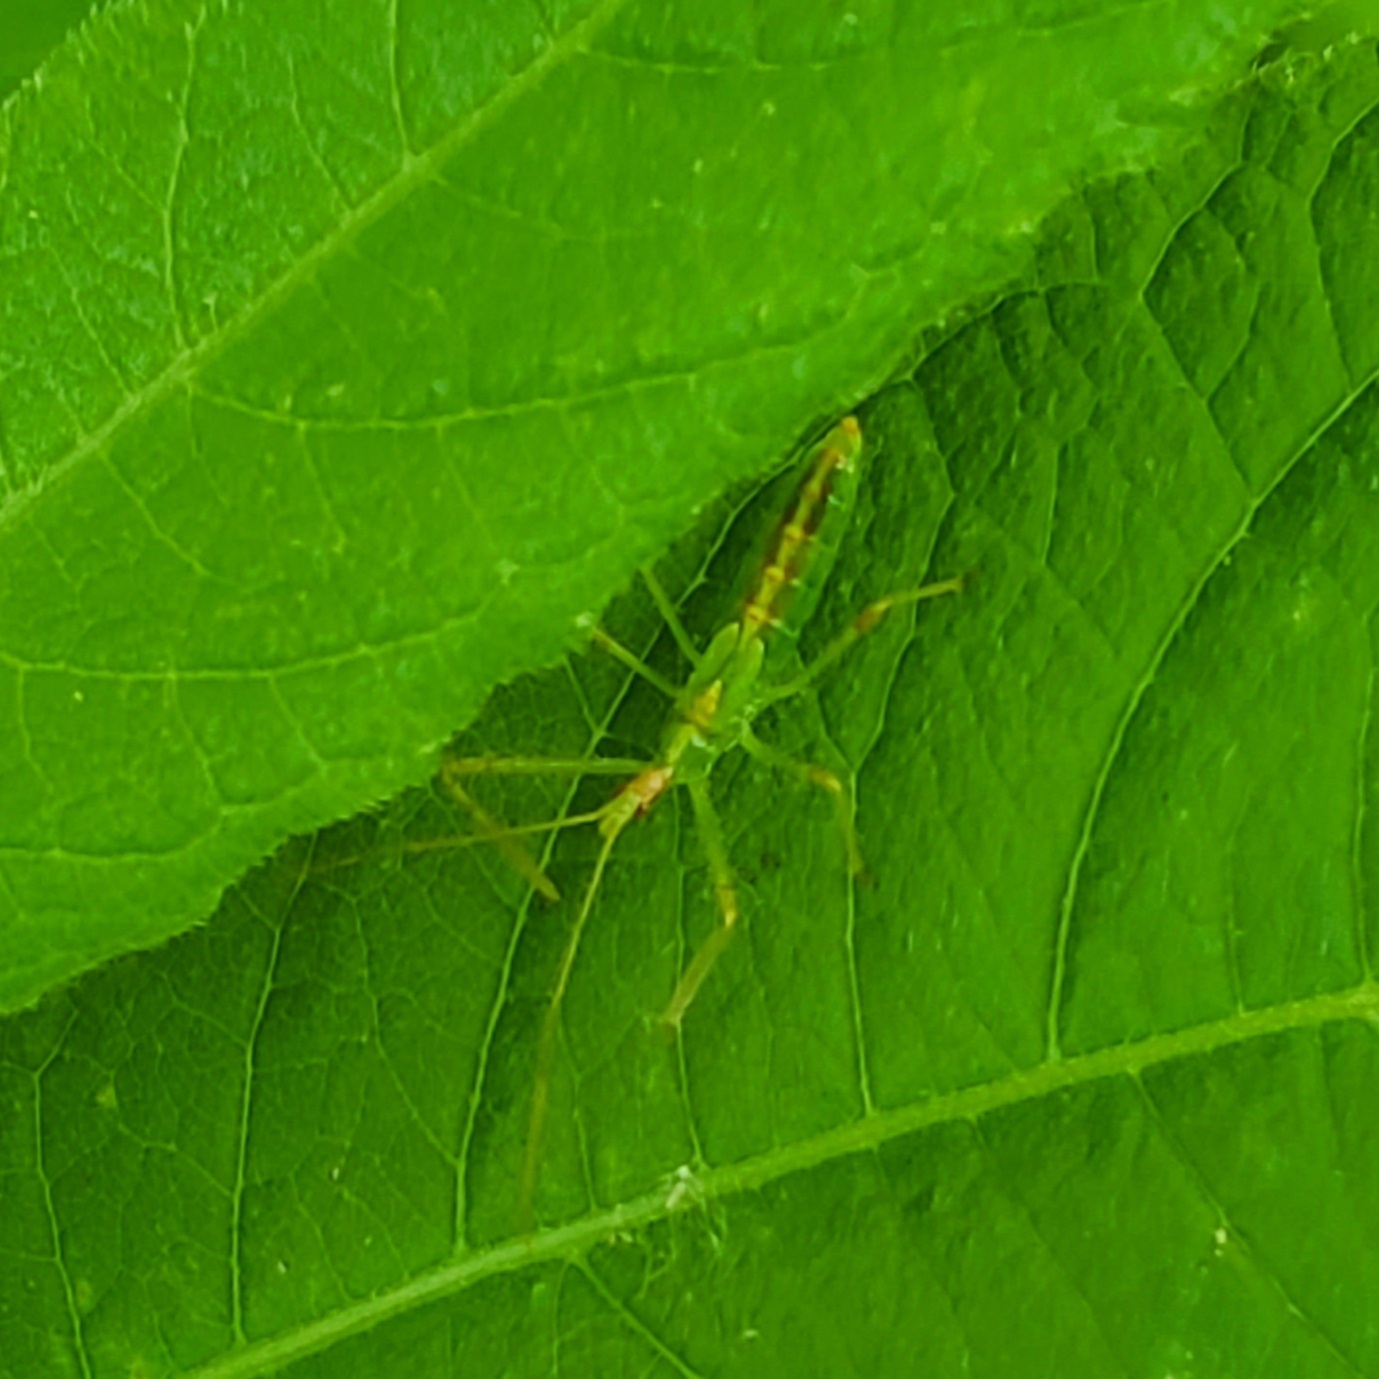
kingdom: Animalia
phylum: Arthropoda
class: Insecta
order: Hemiptera
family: Reduviidae
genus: Zelus
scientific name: Zelus luridus
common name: Pale green assassin bug
